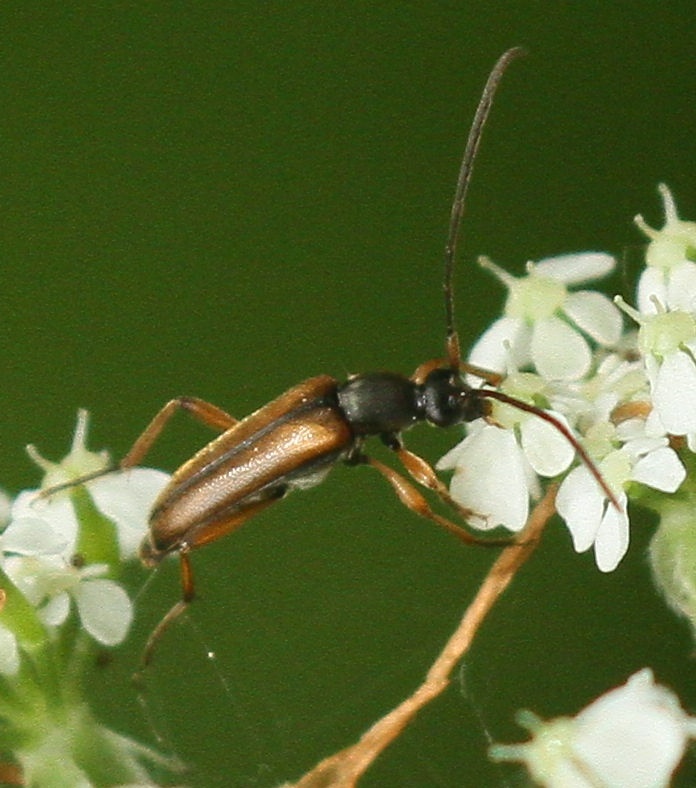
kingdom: Animalia
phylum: Arthropoda
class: Insecta
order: Coleoptera
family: Cerambycidae
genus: Alosterna
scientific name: Alosterna tabacicolor
